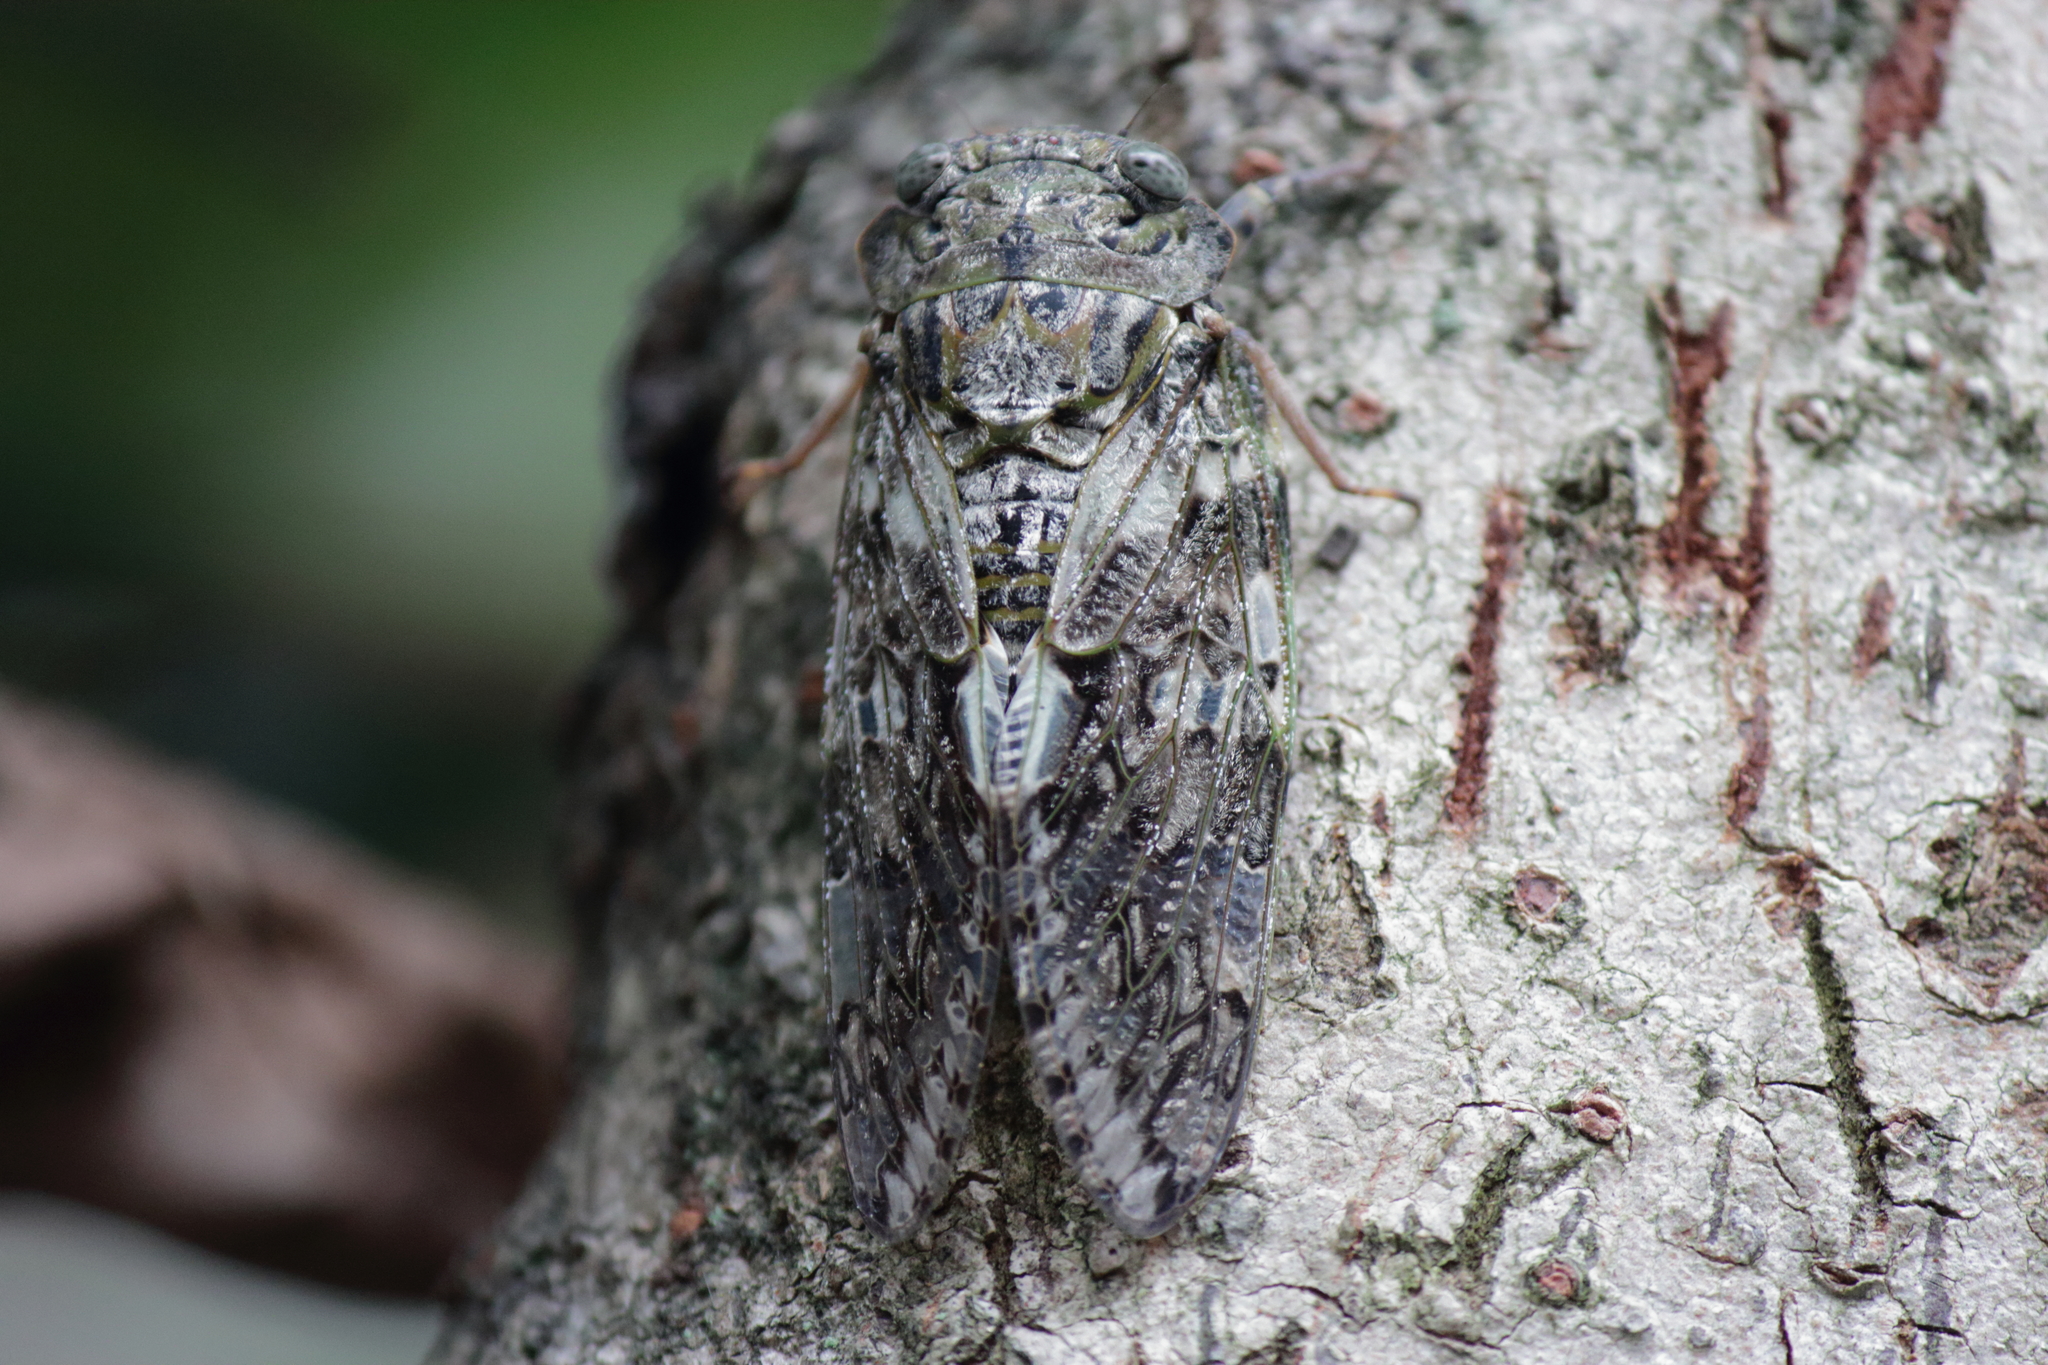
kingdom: Animalia
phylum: Arthropoda
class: Insecta
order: Hemiptera
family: Cicadidae
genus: Platypleura
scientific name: Platypleura kaempferi
